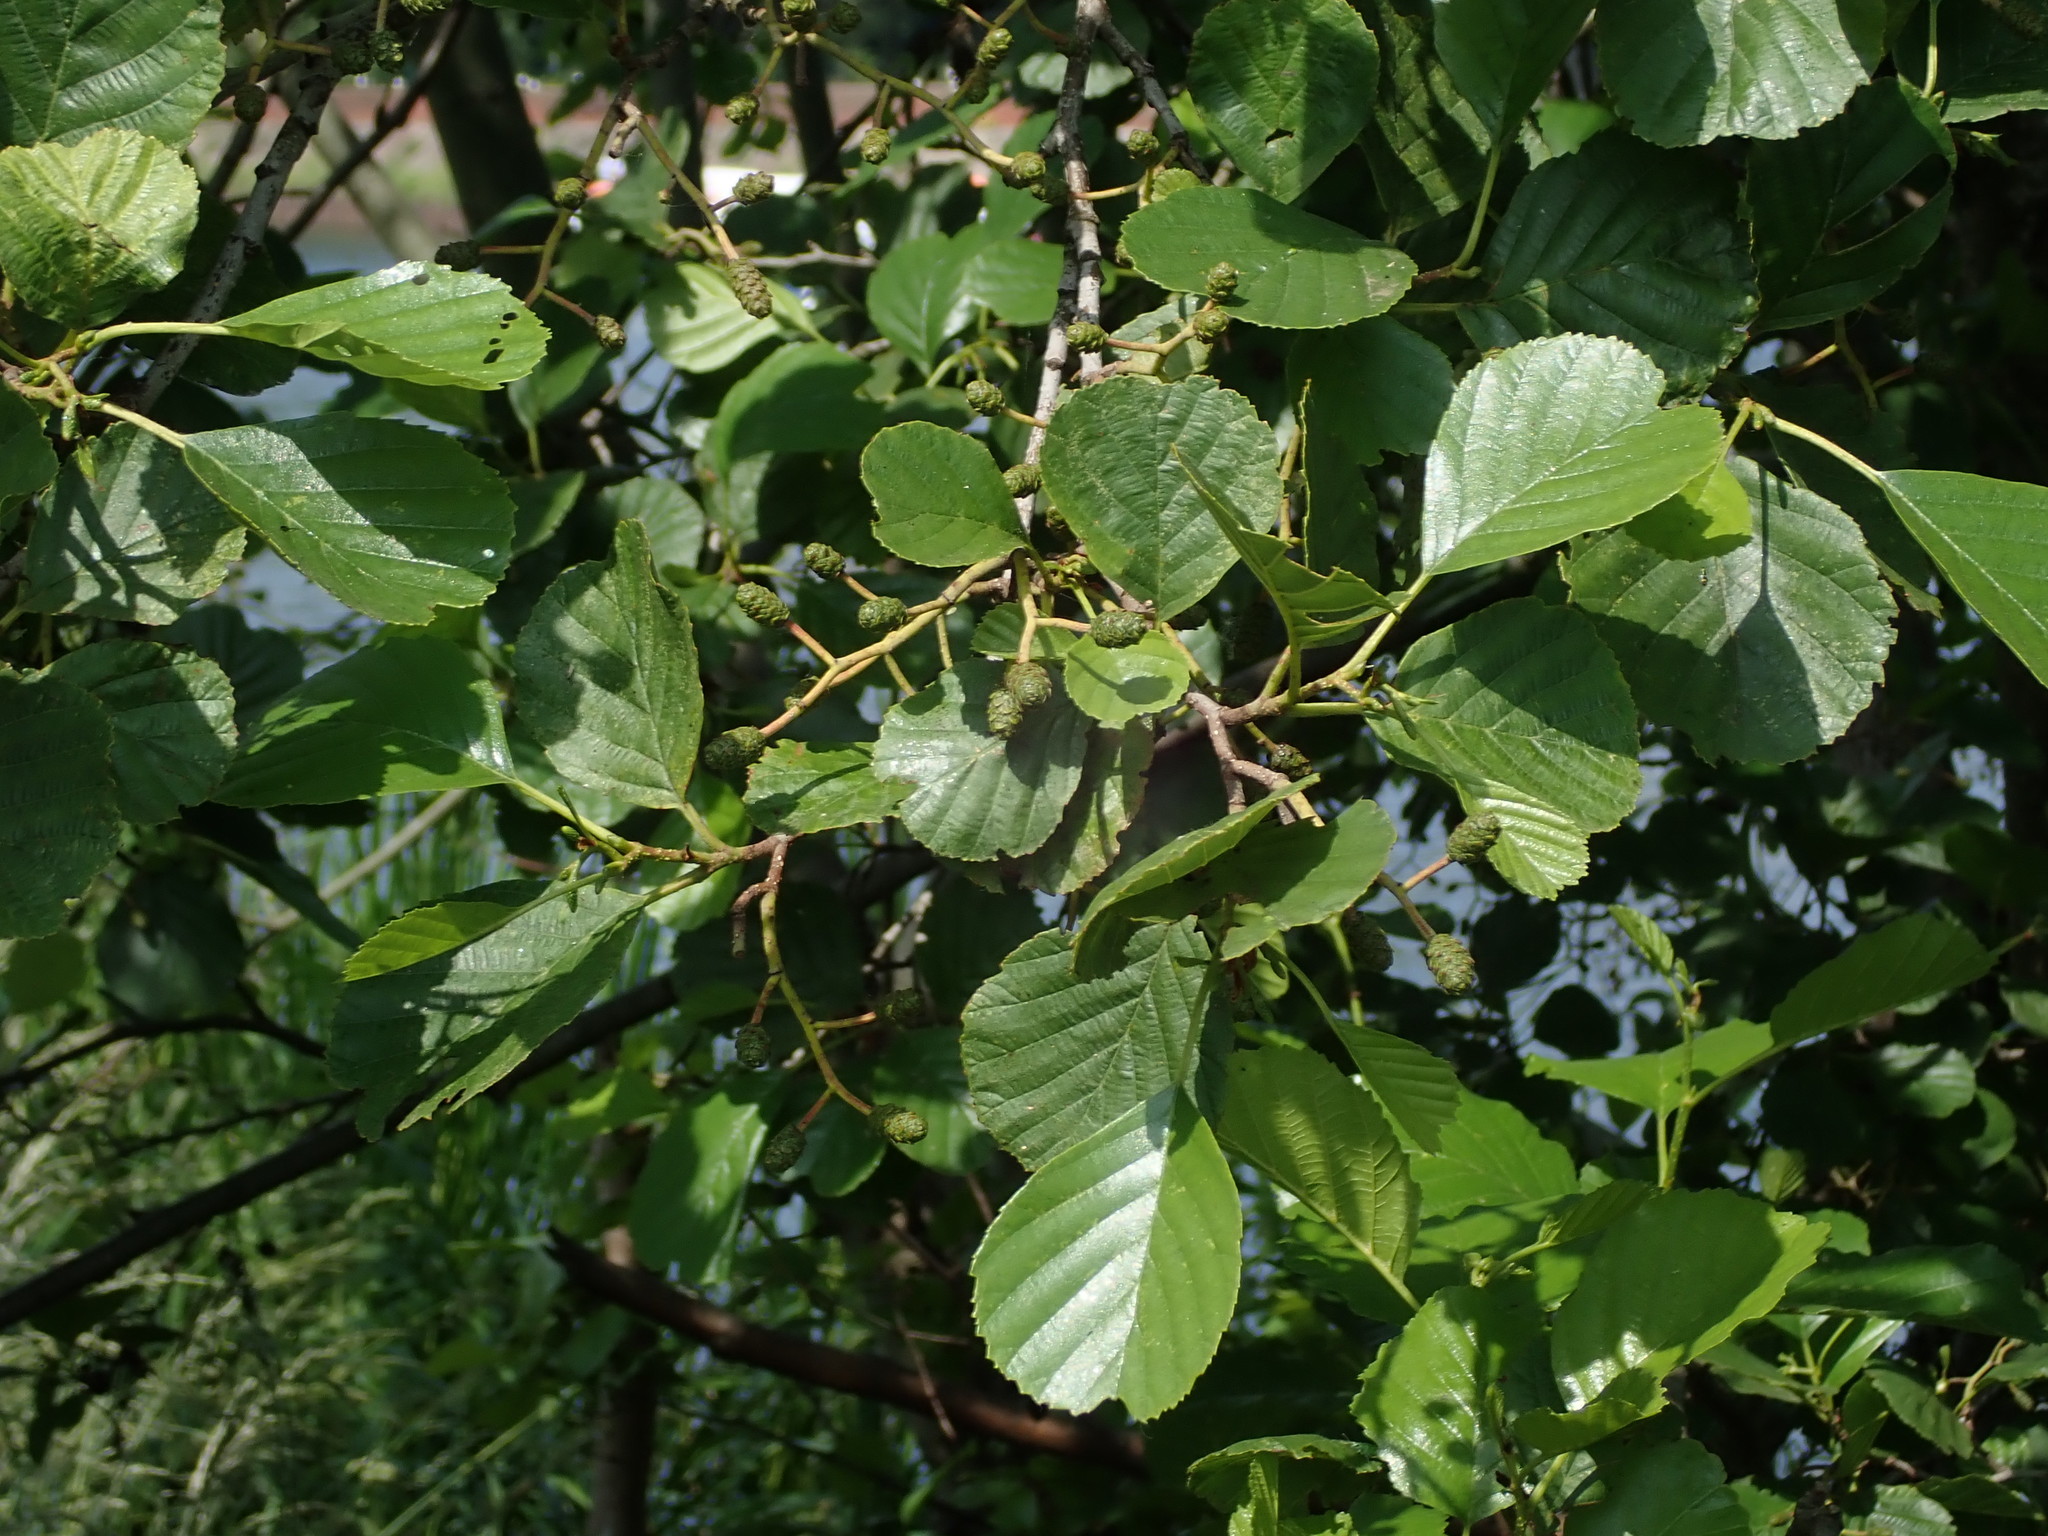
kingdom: Plantae
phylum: Tracheophyta
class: Magnoliopsida
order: Fagales
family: Betulaceae
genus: Alnus
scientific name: Alnus glutinosa
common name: Black alder
